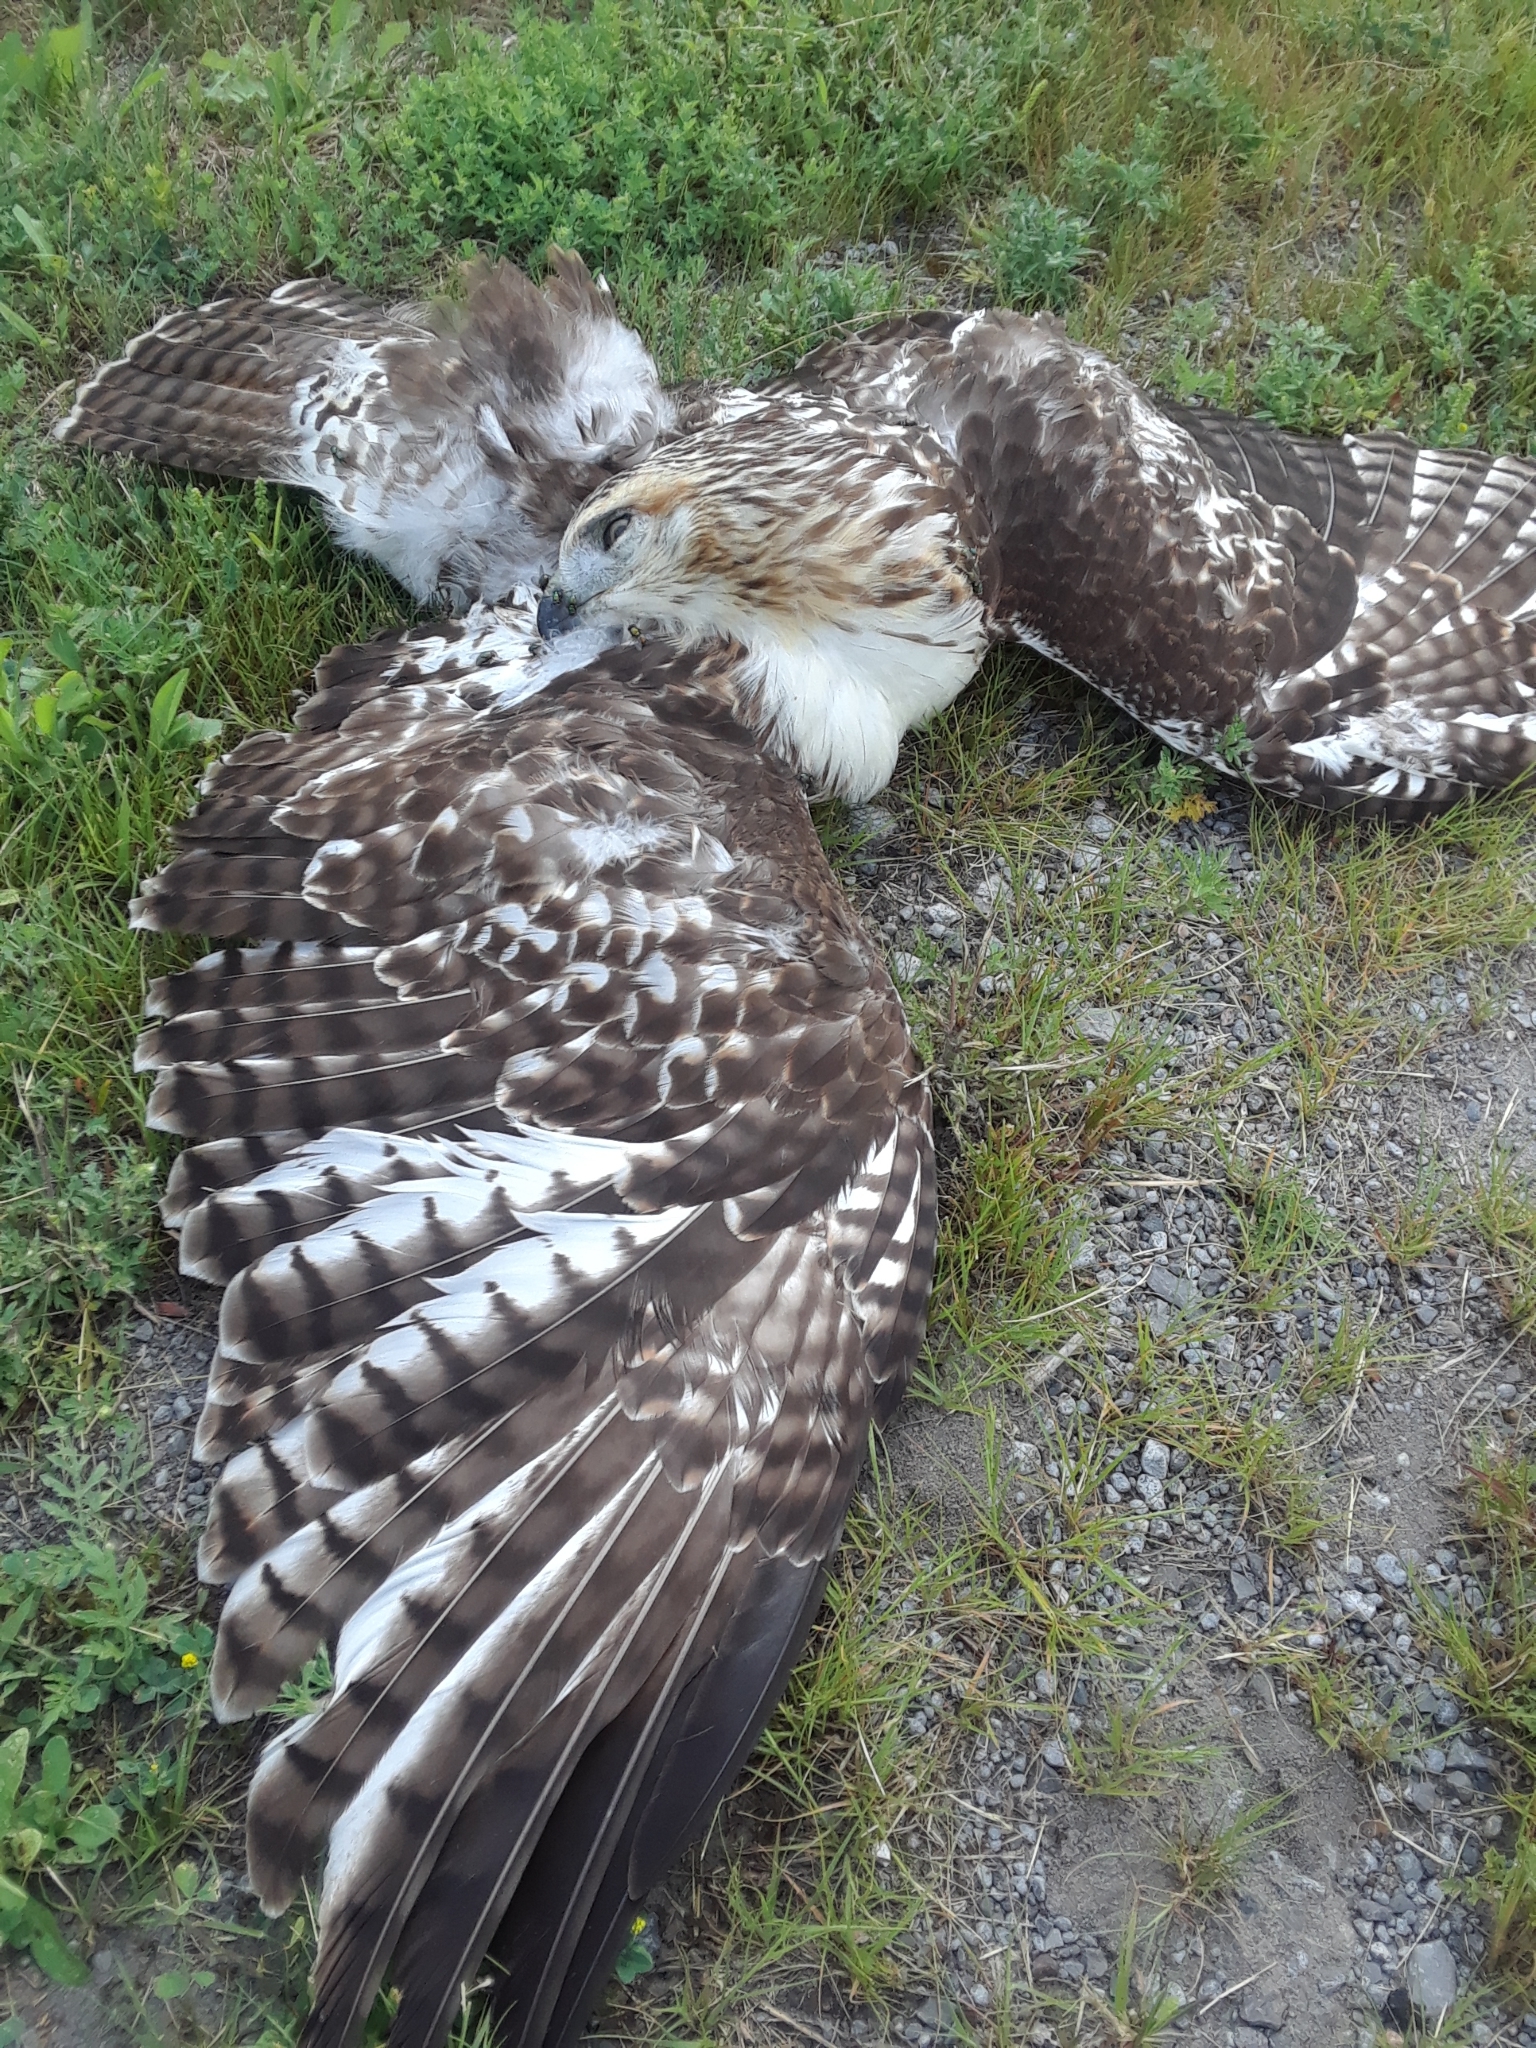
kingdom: Animalia
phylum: Chordata
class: Aves
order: Accipitriformes
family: Accipitridae
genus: Buteo
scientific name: Buteo jamaicensis
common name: Red-tailed hawk
